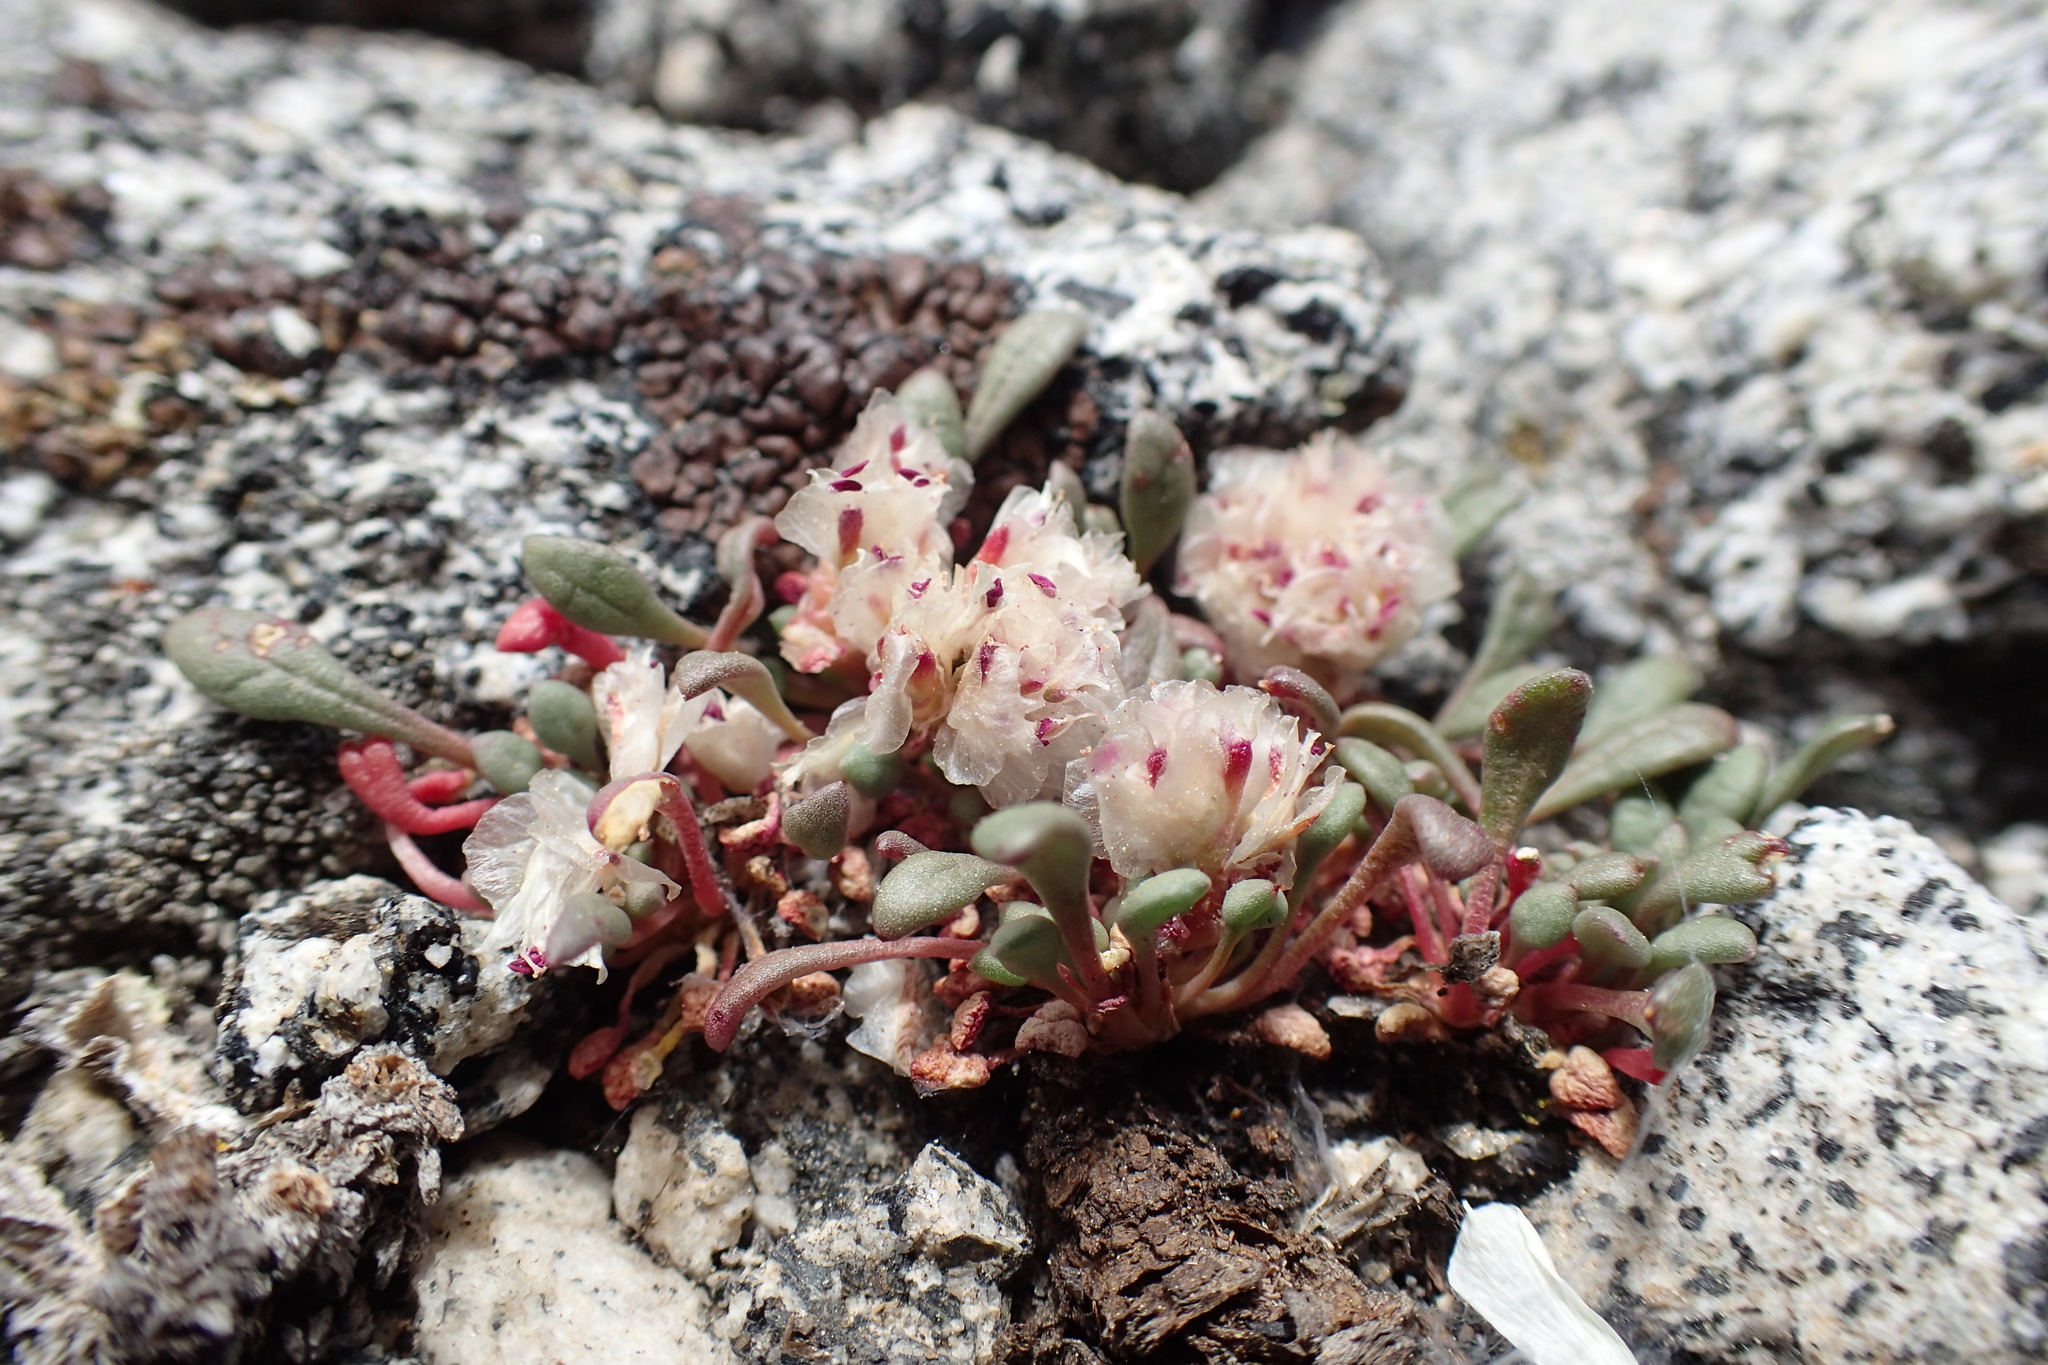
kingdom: Plantae
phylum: Tracheophyta
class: Magnoliopsida
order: Caryophyllales
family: Montiaceae
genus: Calyptridium
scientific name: Calyptridium umbellatum
